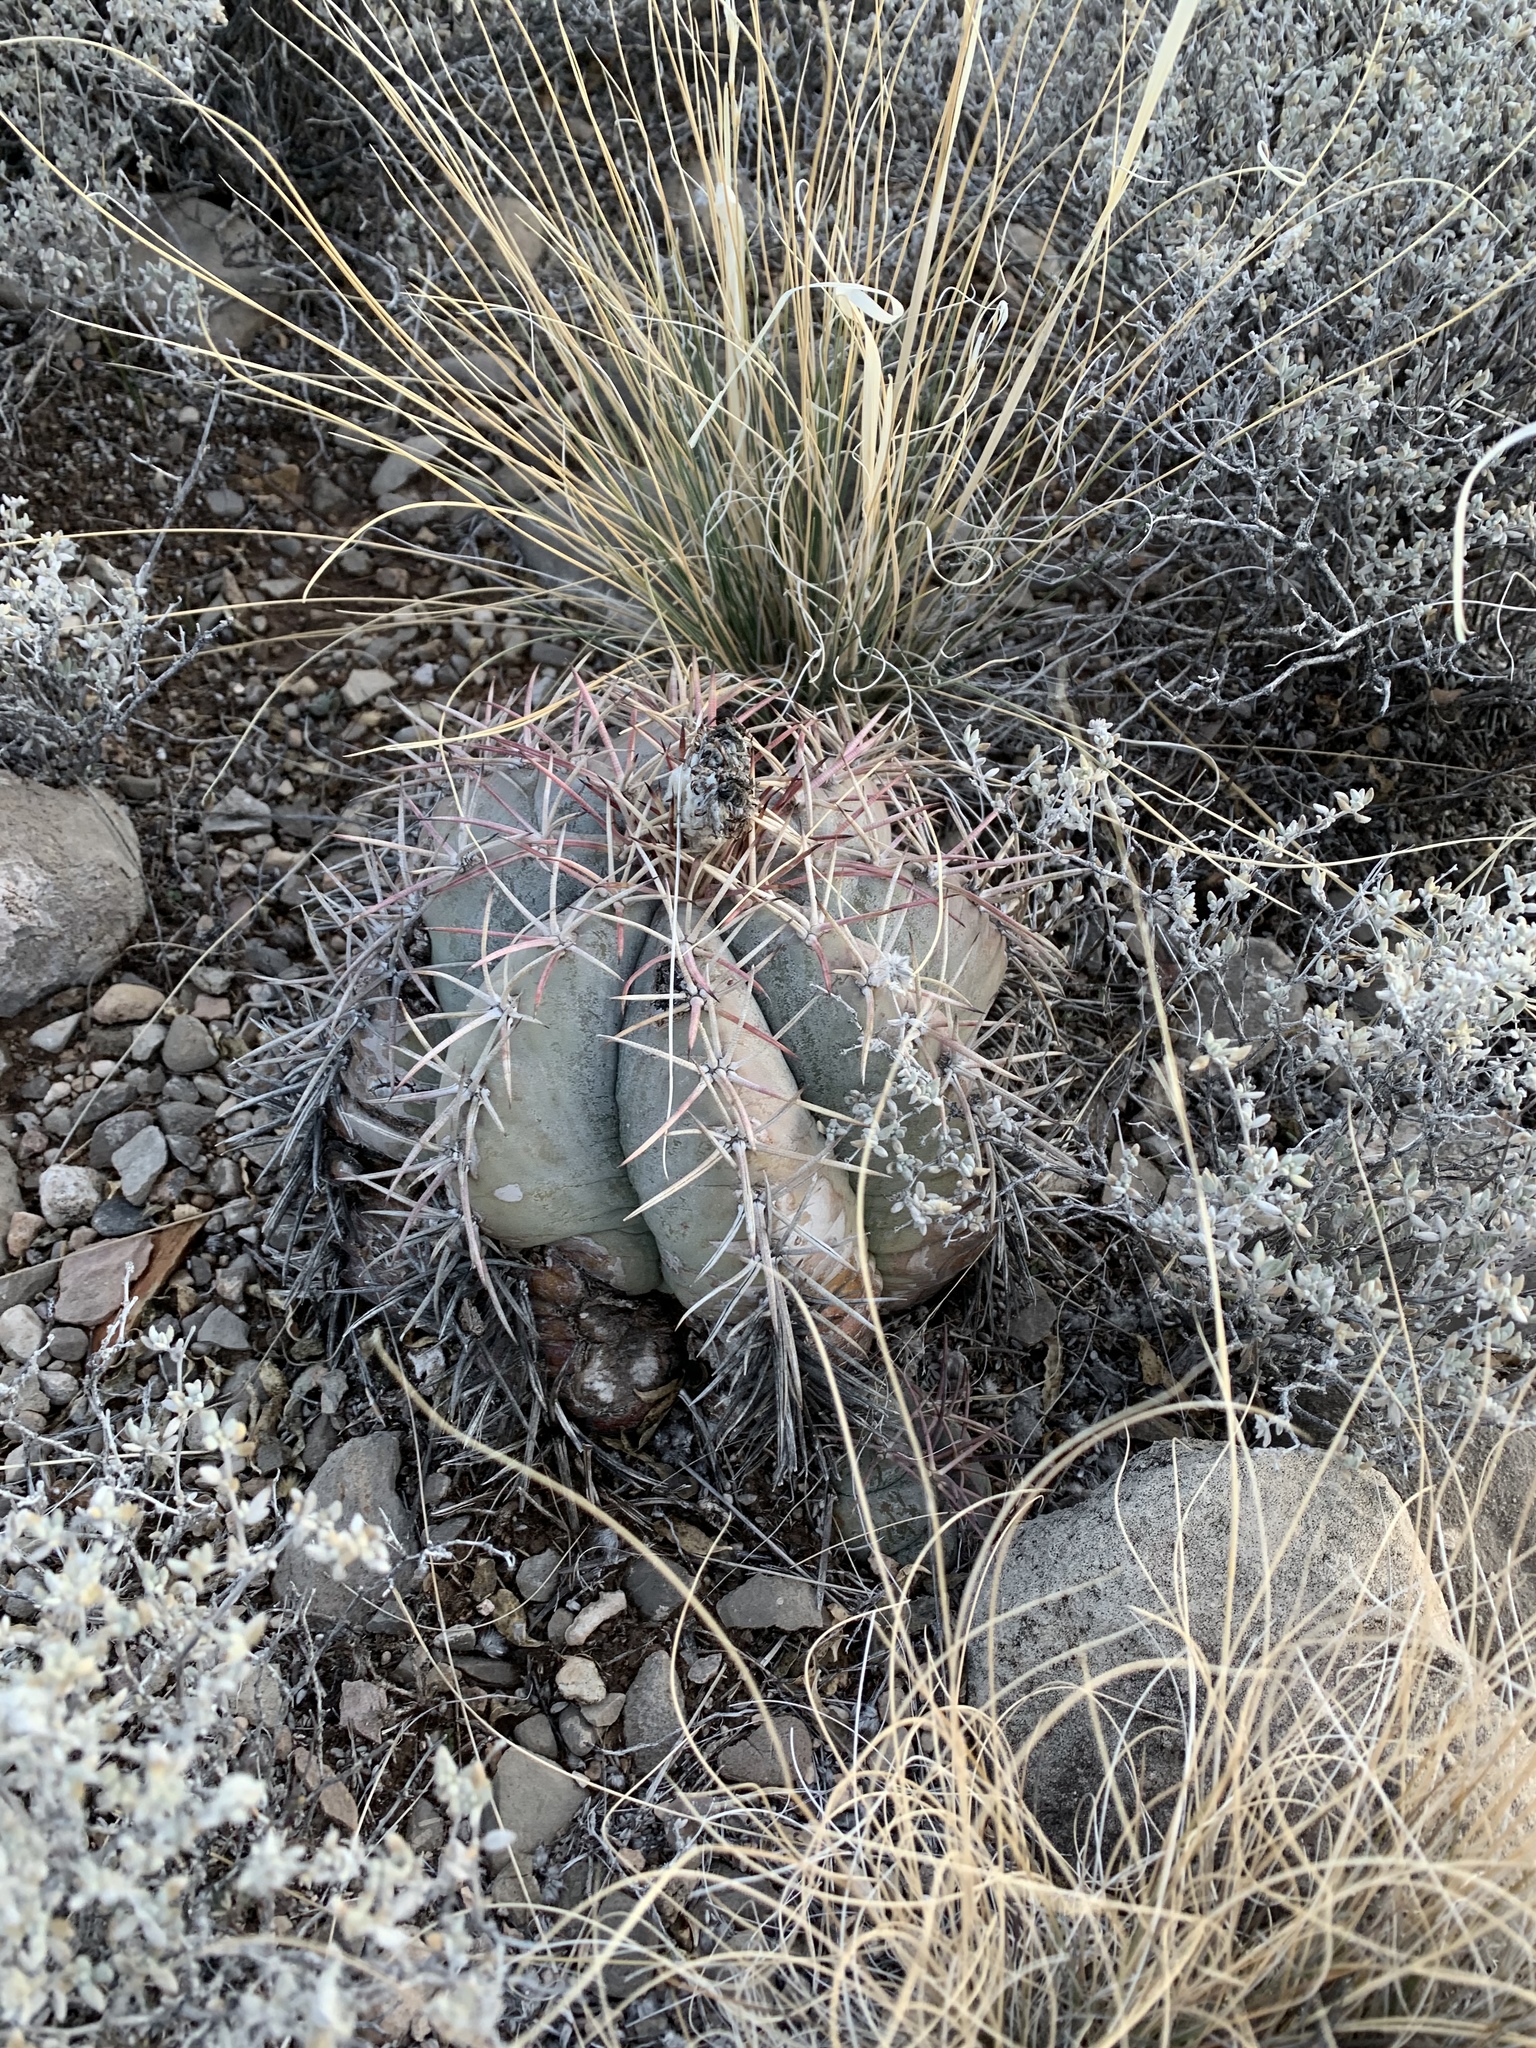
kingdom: Plantae
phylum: Tracheophyta
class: Magnoliopsida
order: Caryophyllales
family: Cactaceae
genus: Echinocactus
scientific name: Echinocactus horizonthalonius
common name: Devilshead
